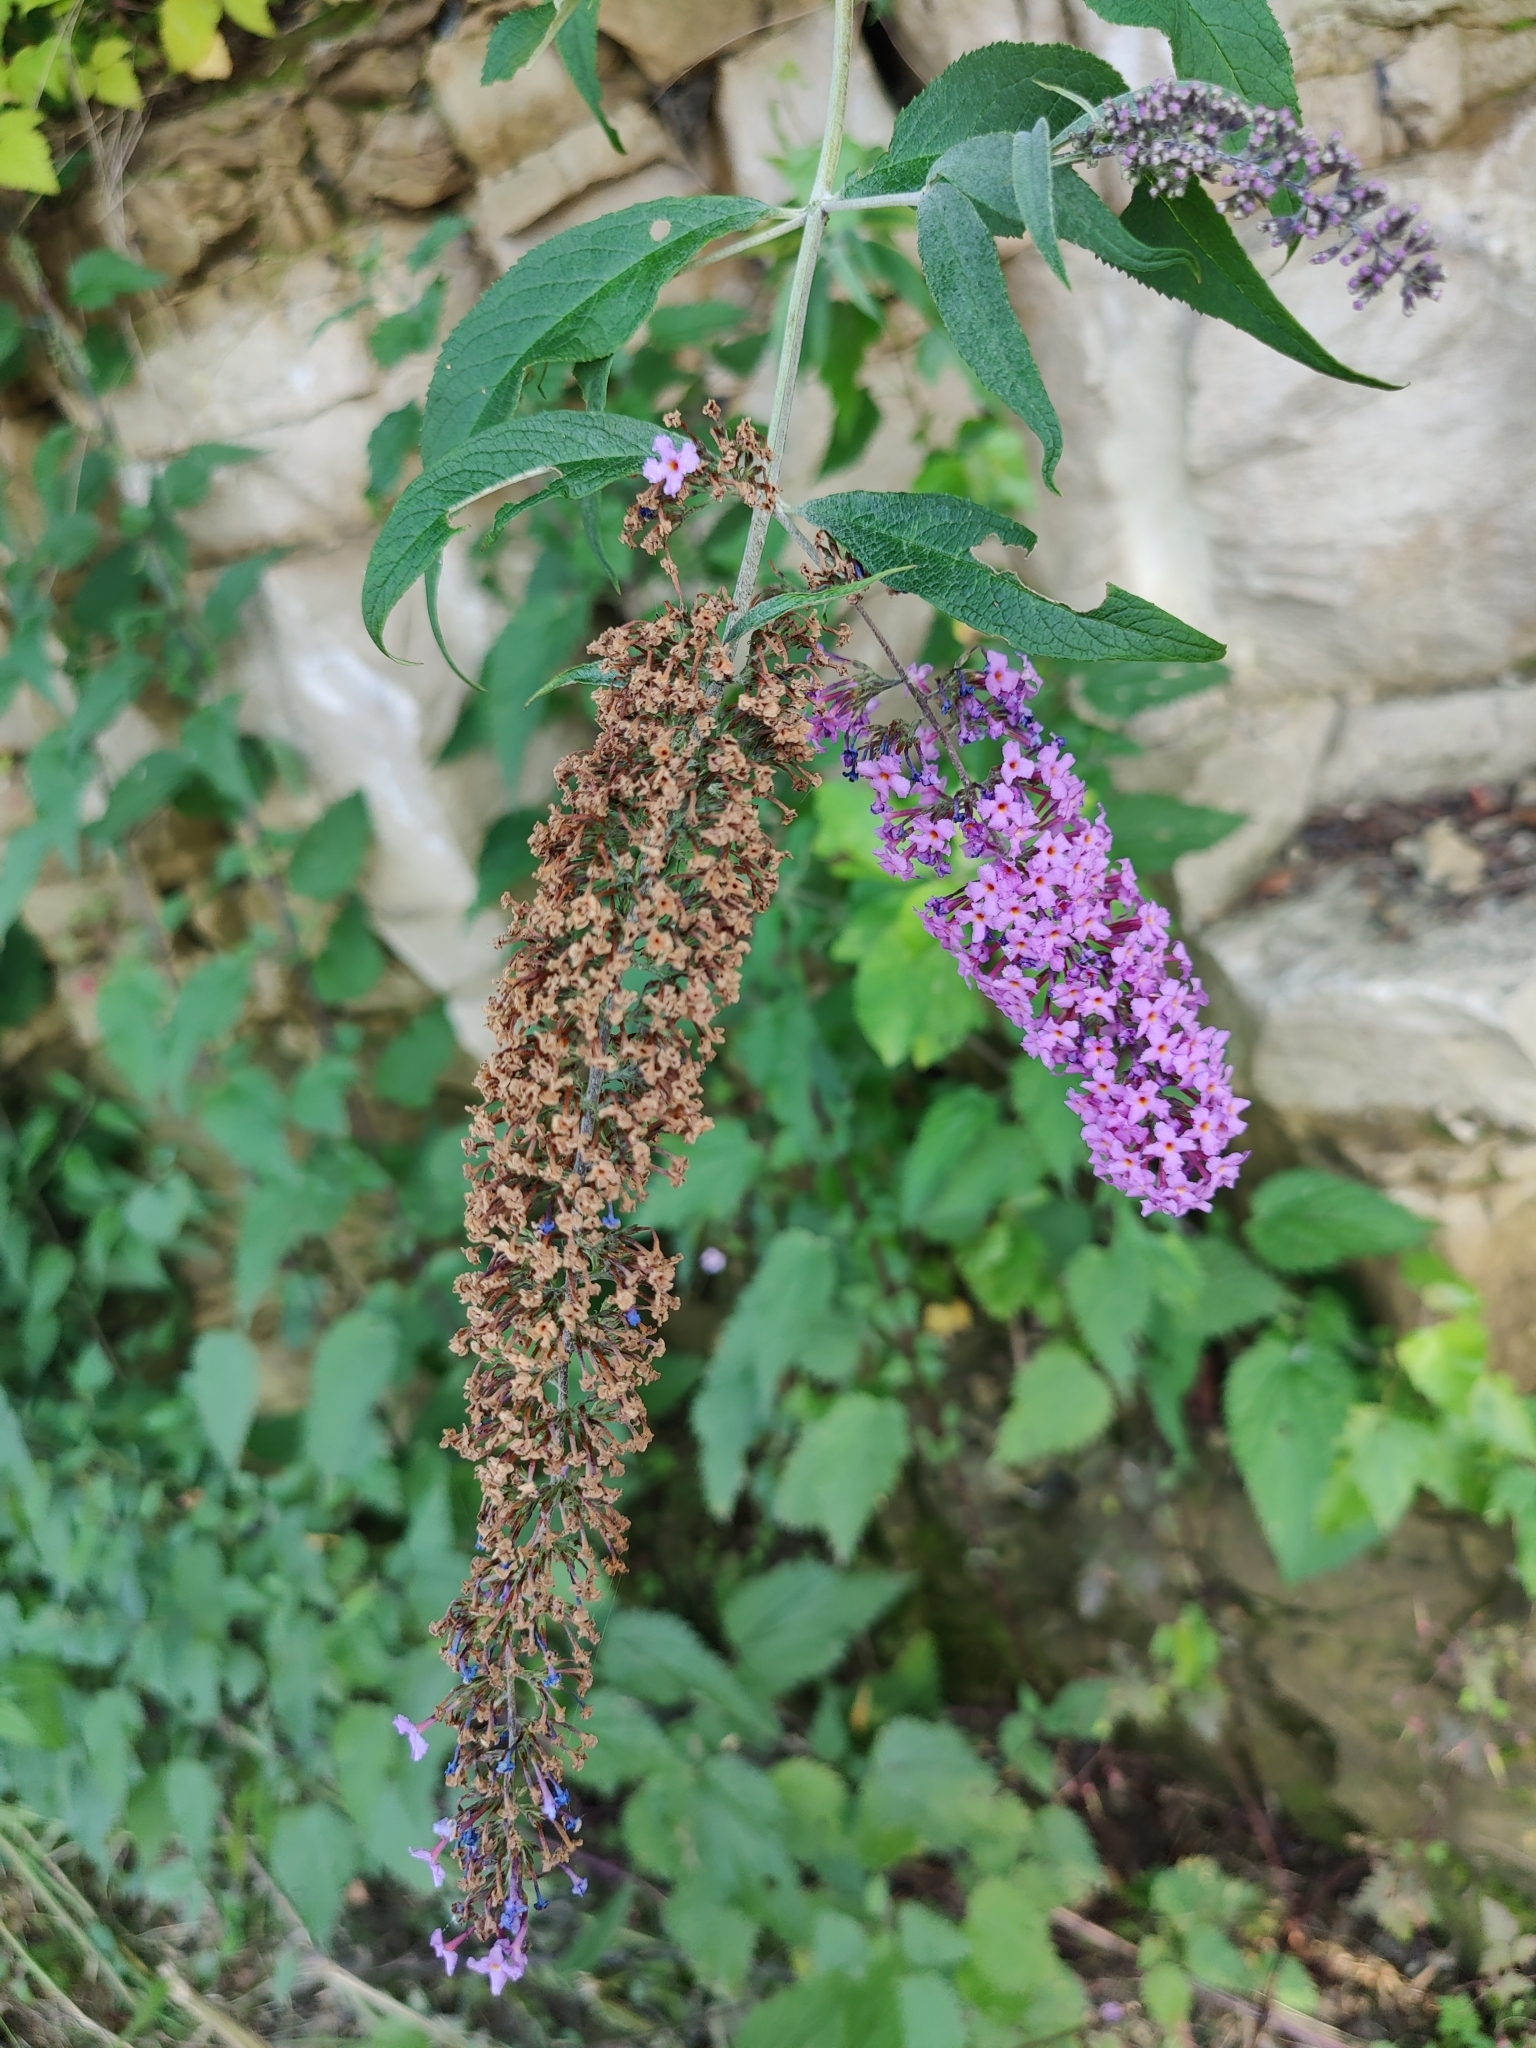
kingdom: Plantae
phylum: Tracheophyta
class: Magnoliopsida
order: Lamiales
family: Scrophulariaceae
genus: Buddleja
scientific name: Buddleja davidii
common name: Butterfly-bush
